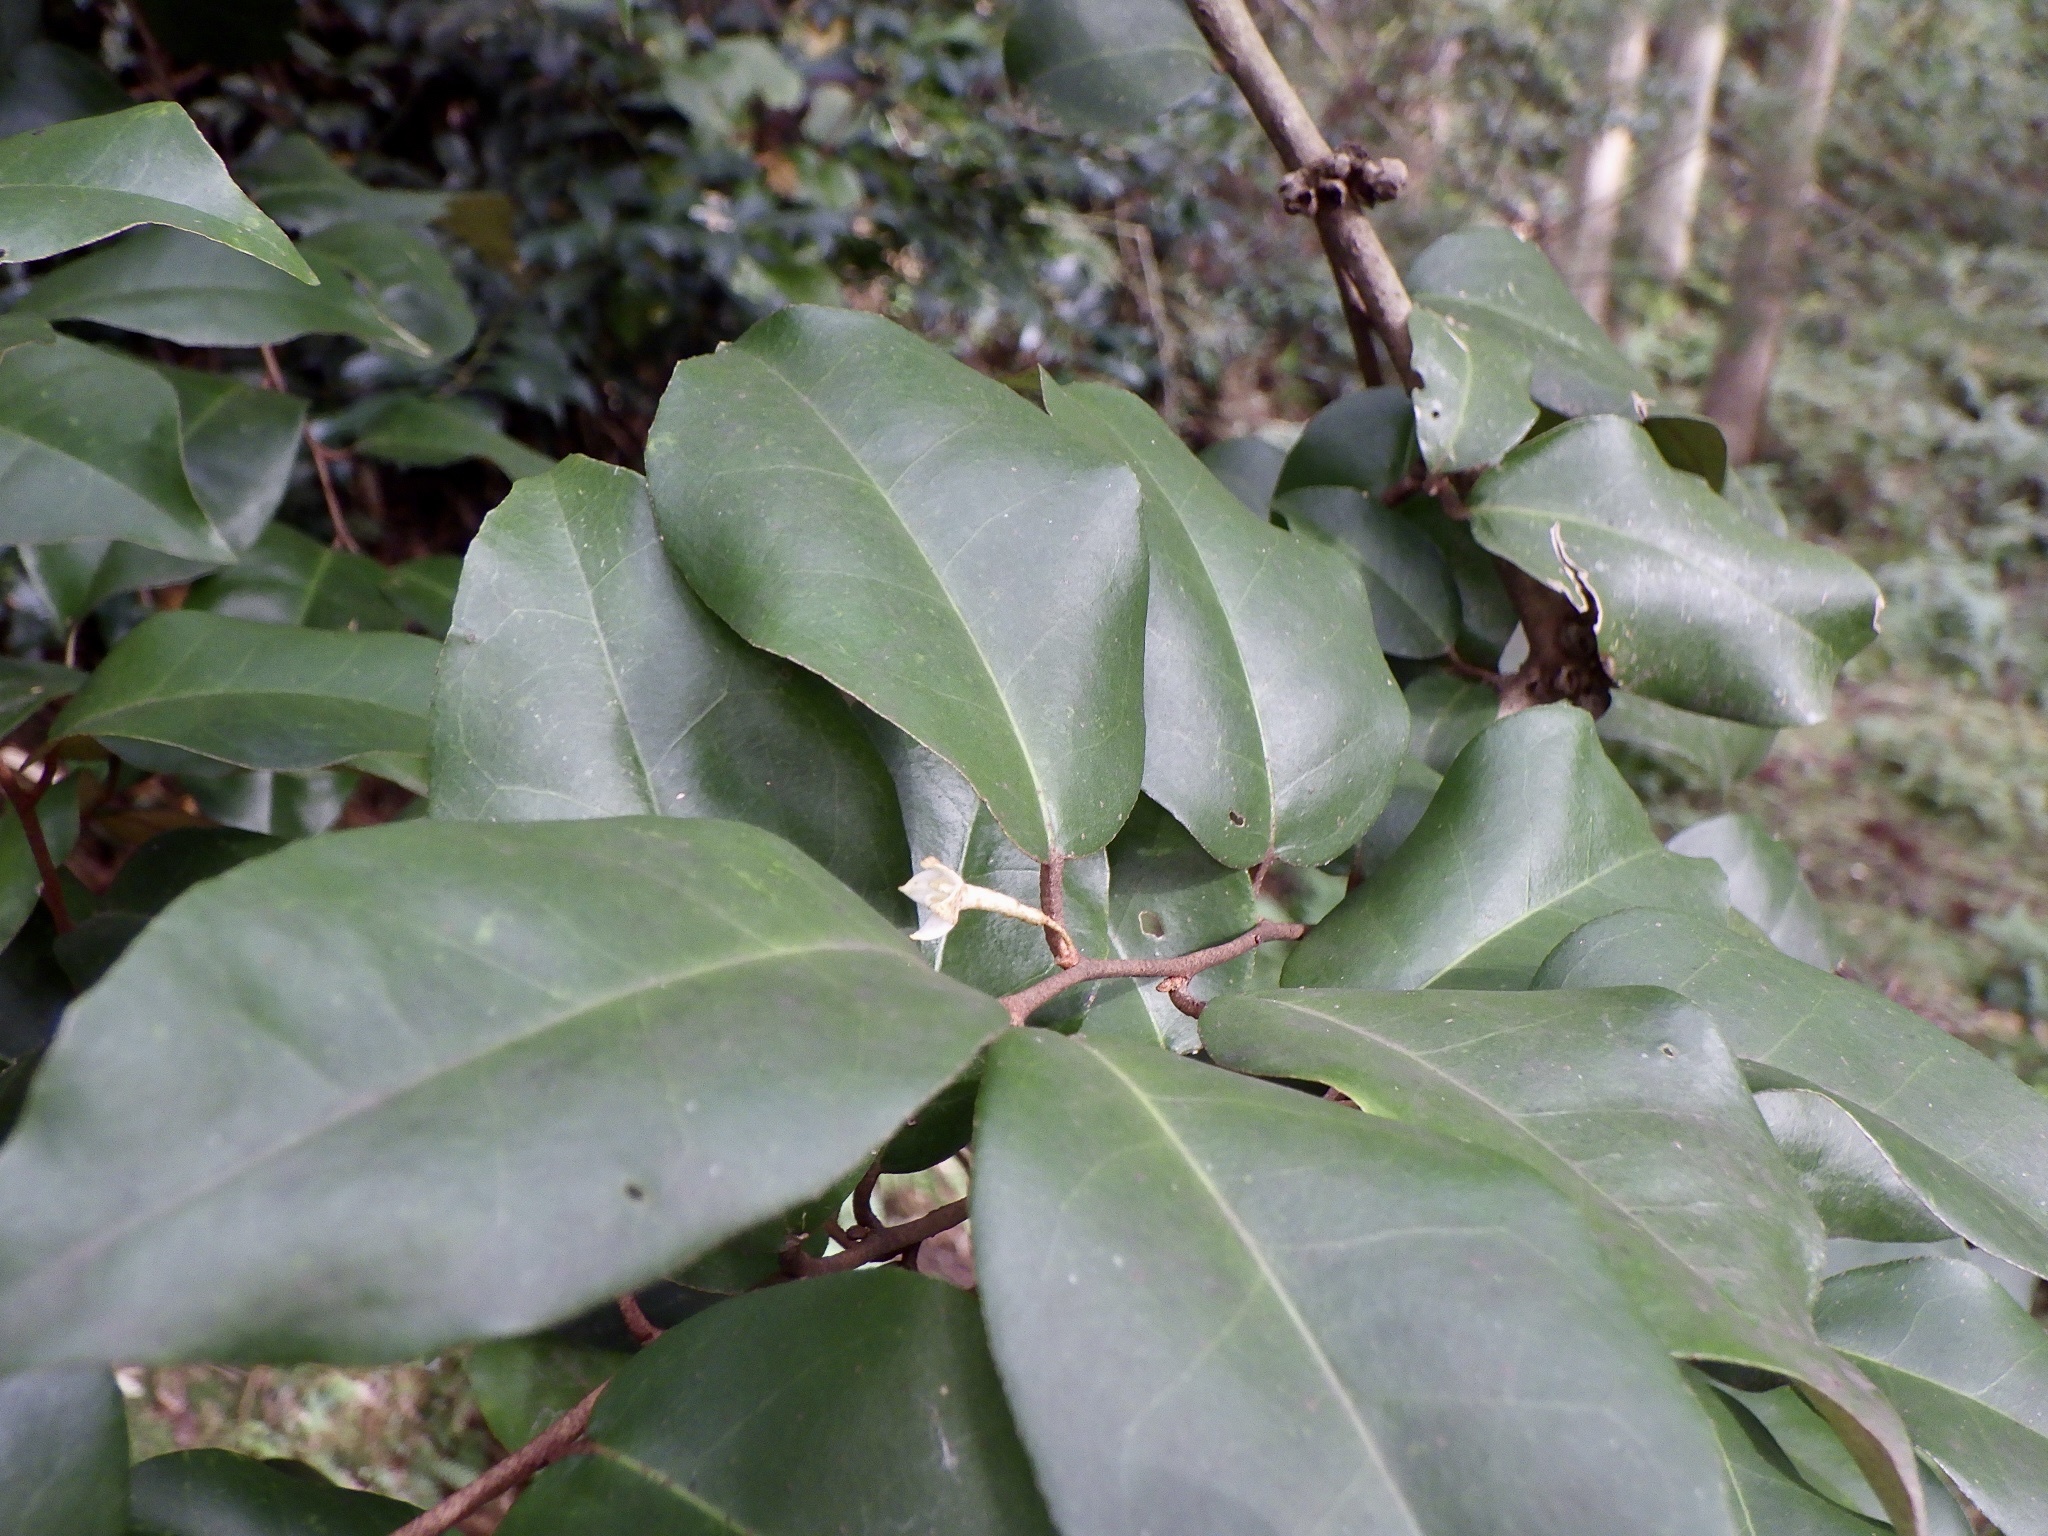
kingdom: Plantae
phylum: Tracheophyta
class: Magnoliopsida
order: Rosales
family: Elaeagnaceae
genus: Elaeagnus
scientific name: Elaeagnus glabra
